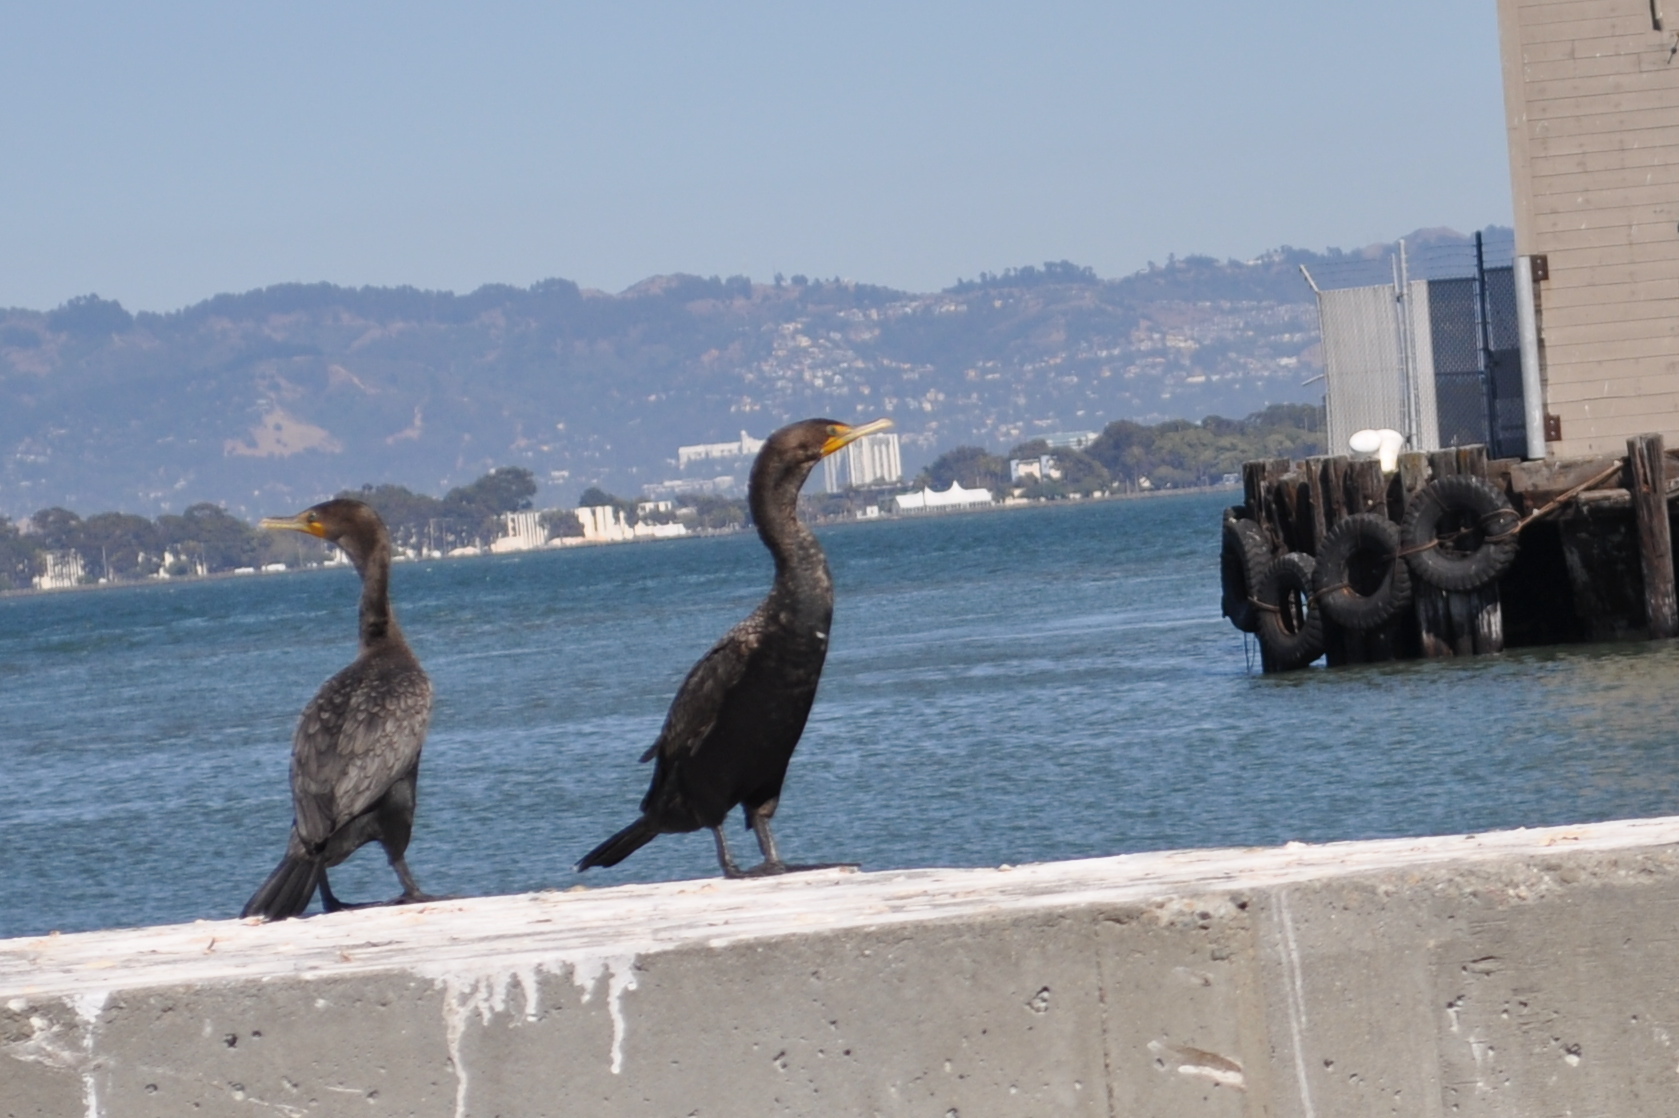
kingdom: Animalia
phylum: Chordata
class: Aves
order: Suliformes
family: Phalacrocoracidae
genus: Phalacrocorax
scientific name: Phalacrocorax auritus
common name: Double-crested cormorant
